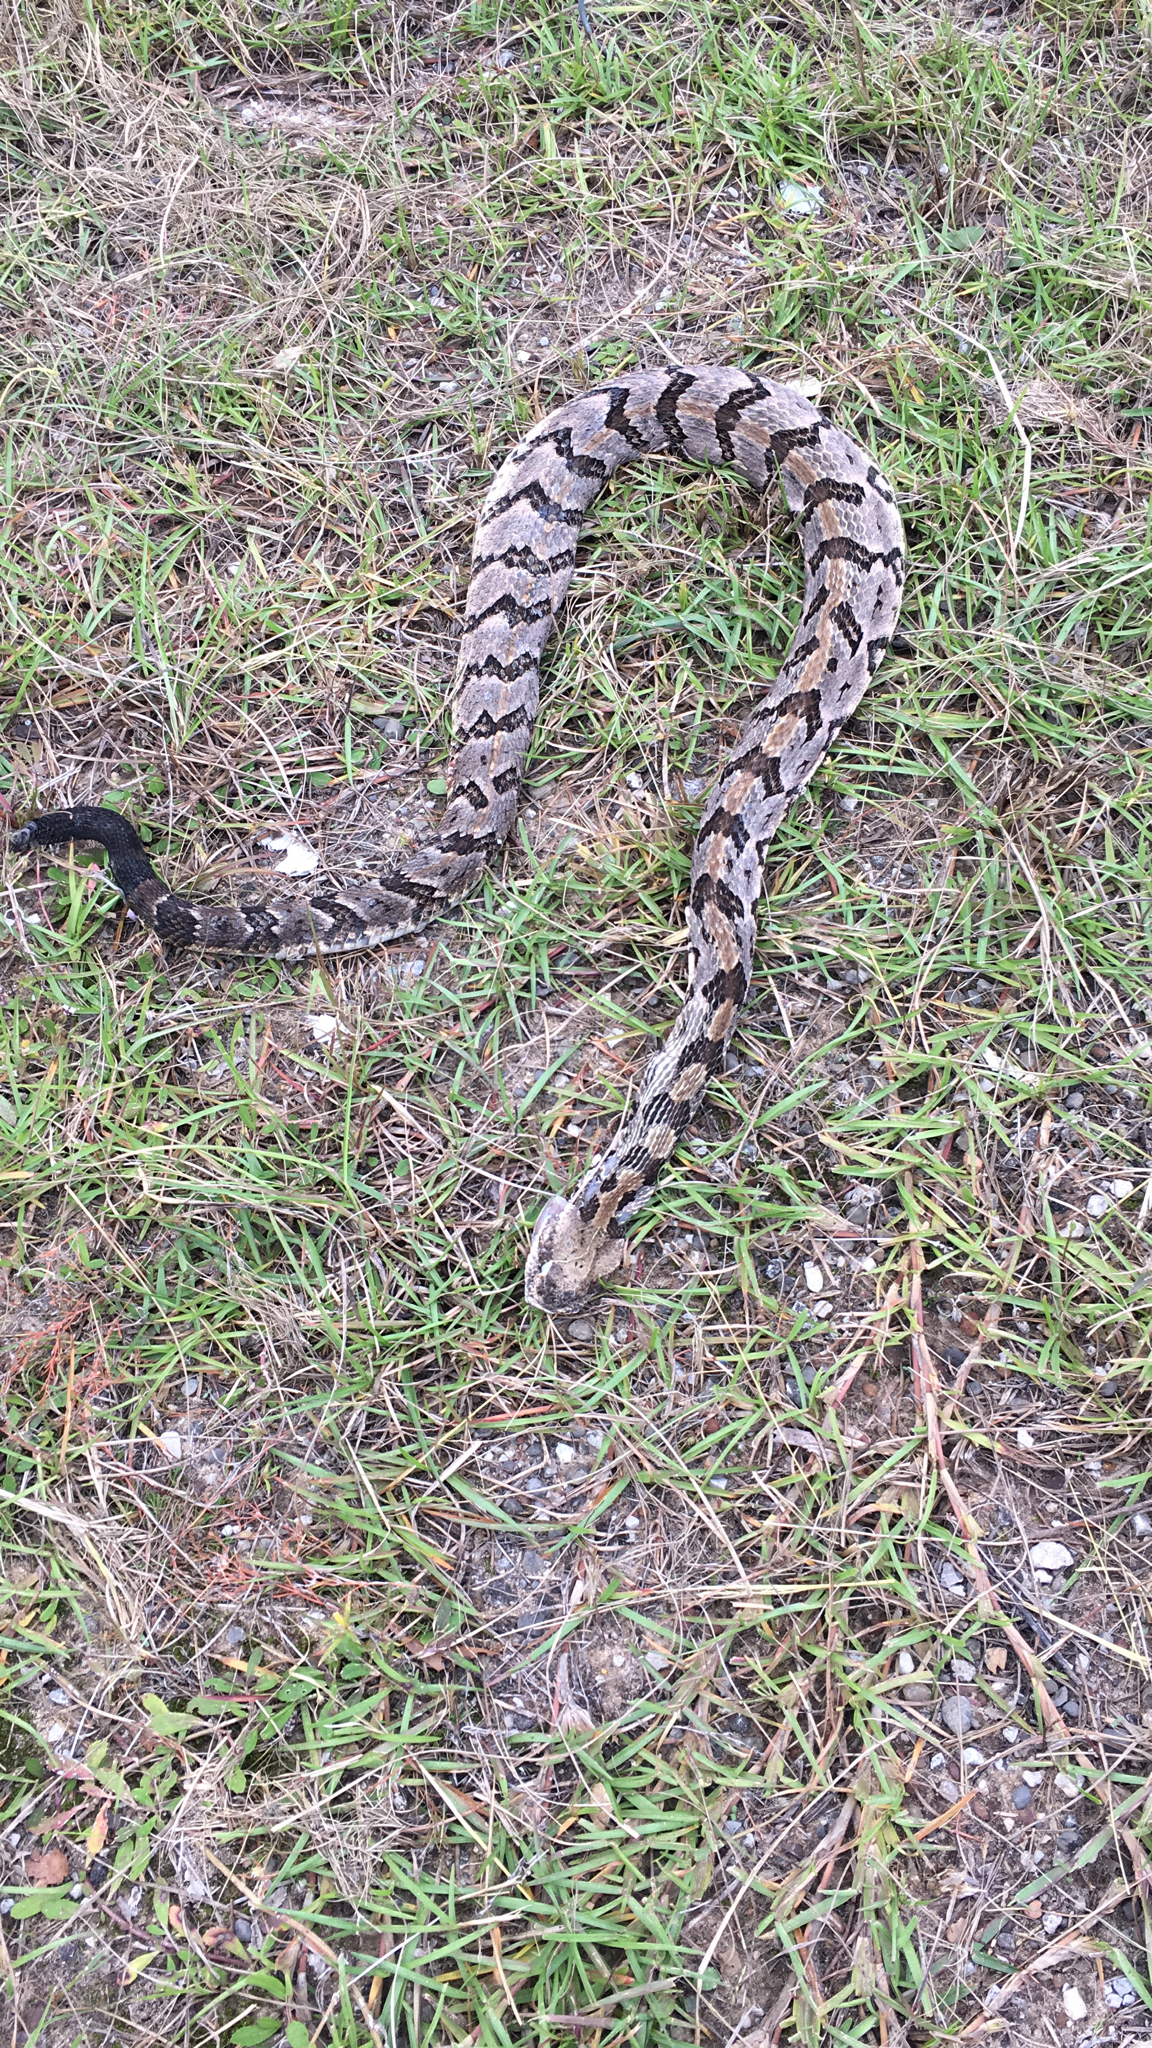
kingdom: Animalia
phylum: Chordata
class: Squamata
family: Viperidae
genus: Crotalus
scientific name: Crotalus horridus
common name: Timber rattlesnake
